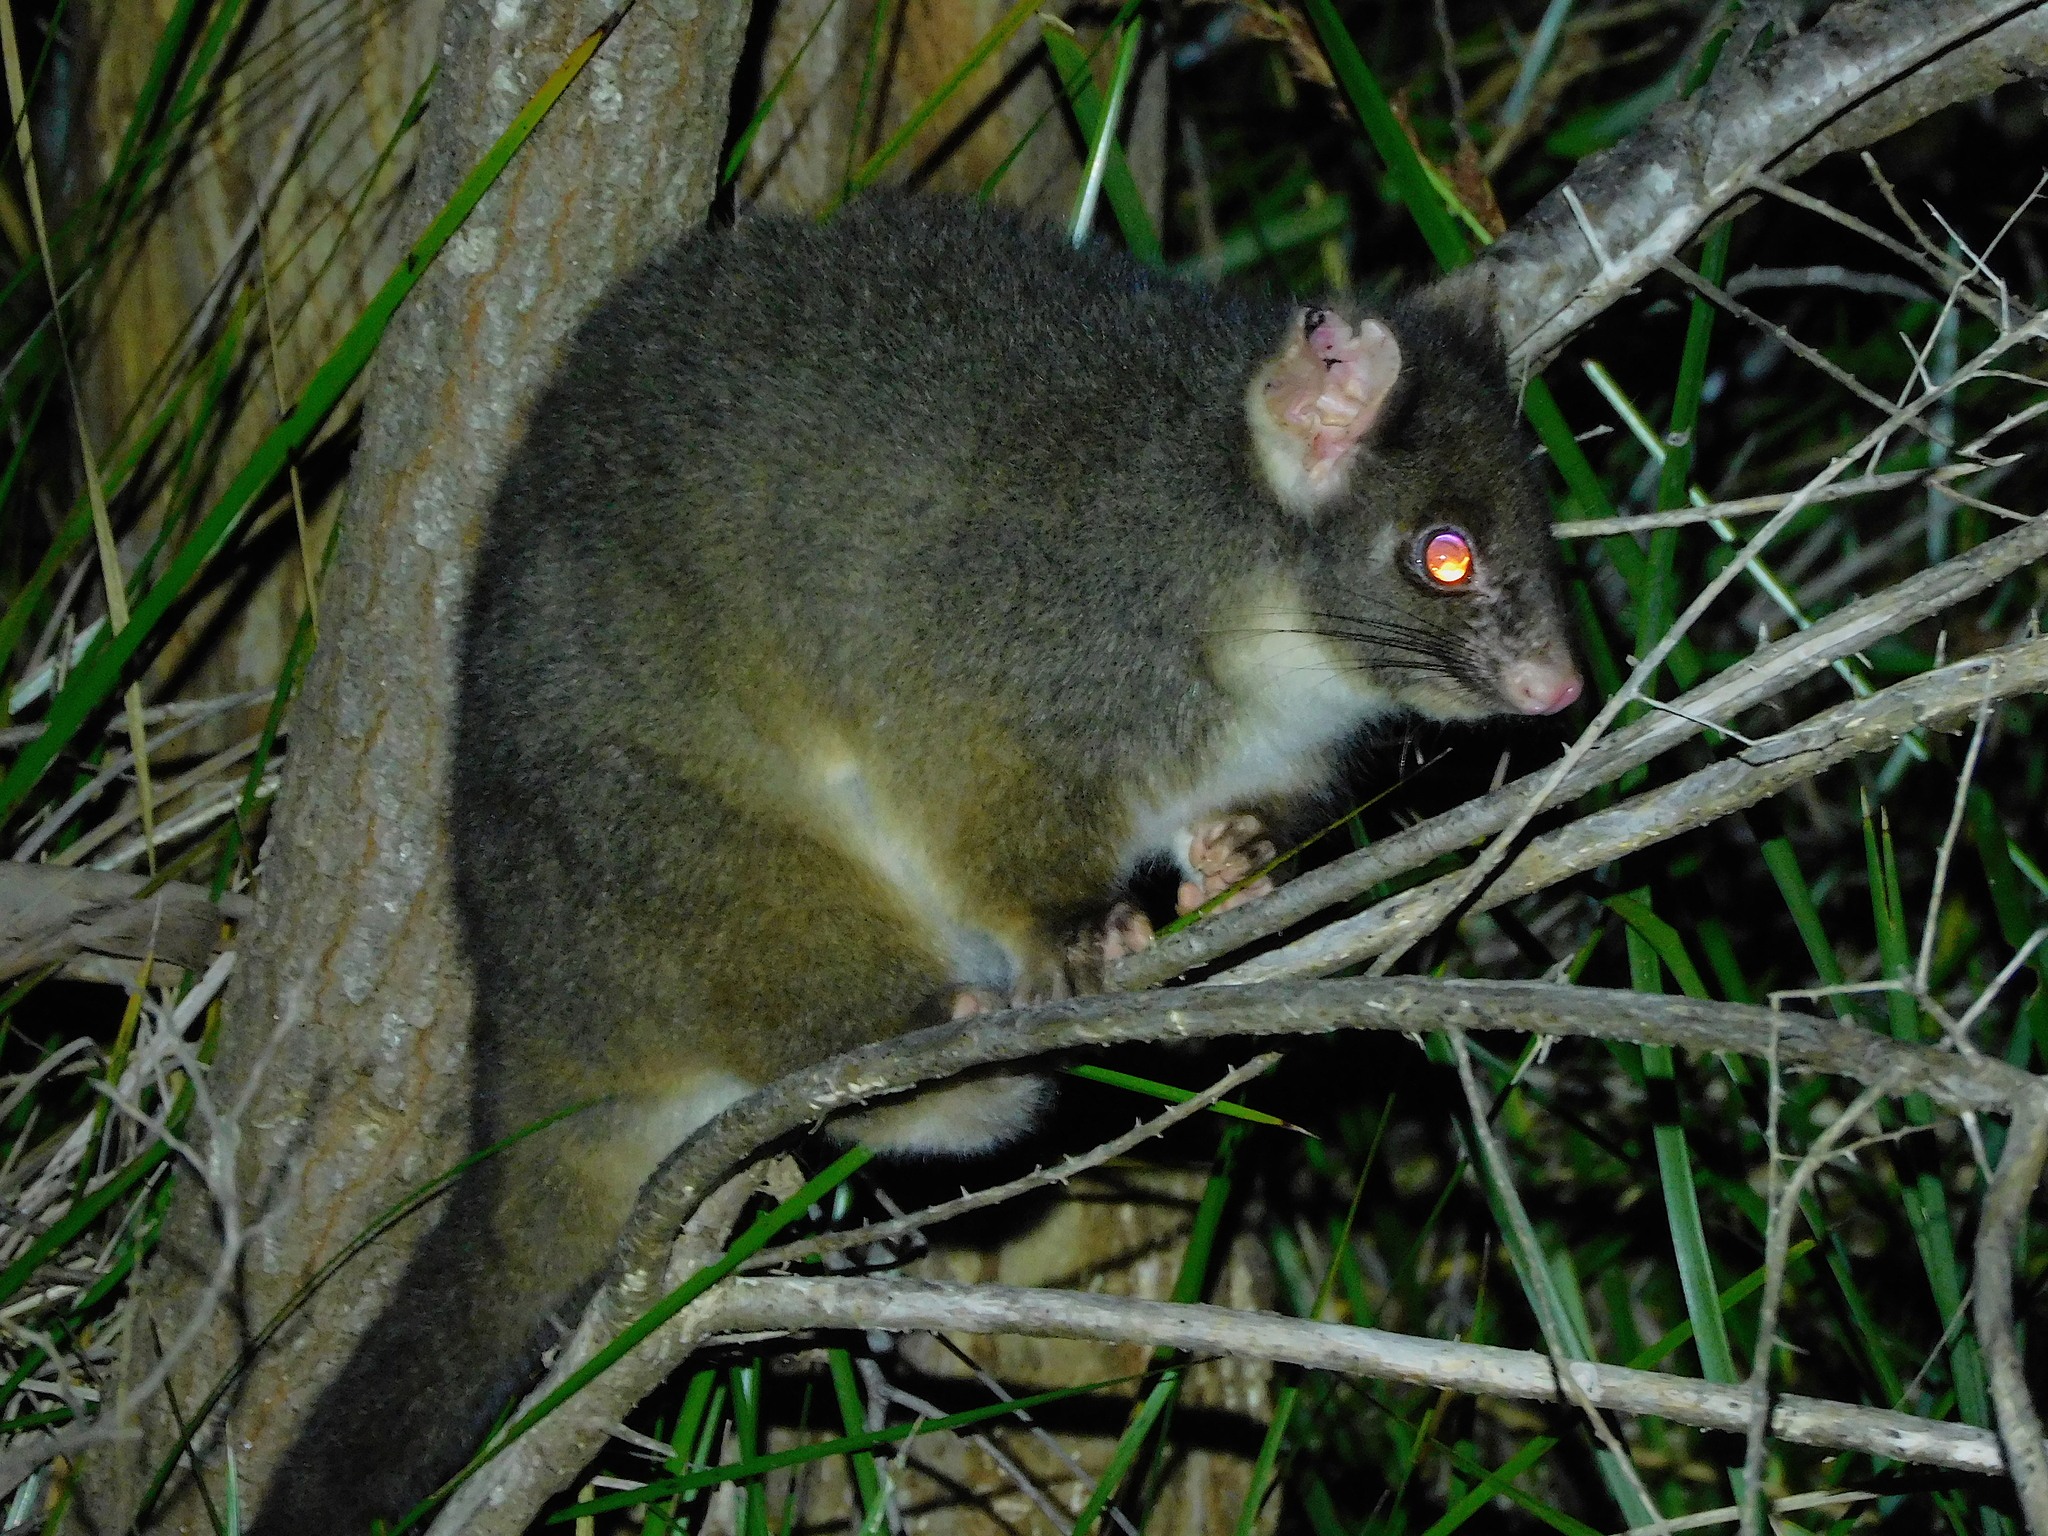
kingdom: Animalia
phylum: Chordata
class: Mammalia
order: Diprotodontia
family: Pseudocheiridae
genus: Pseudocheirus
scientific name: Pseudocheirus peregrinus
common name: Common ringtail possum
